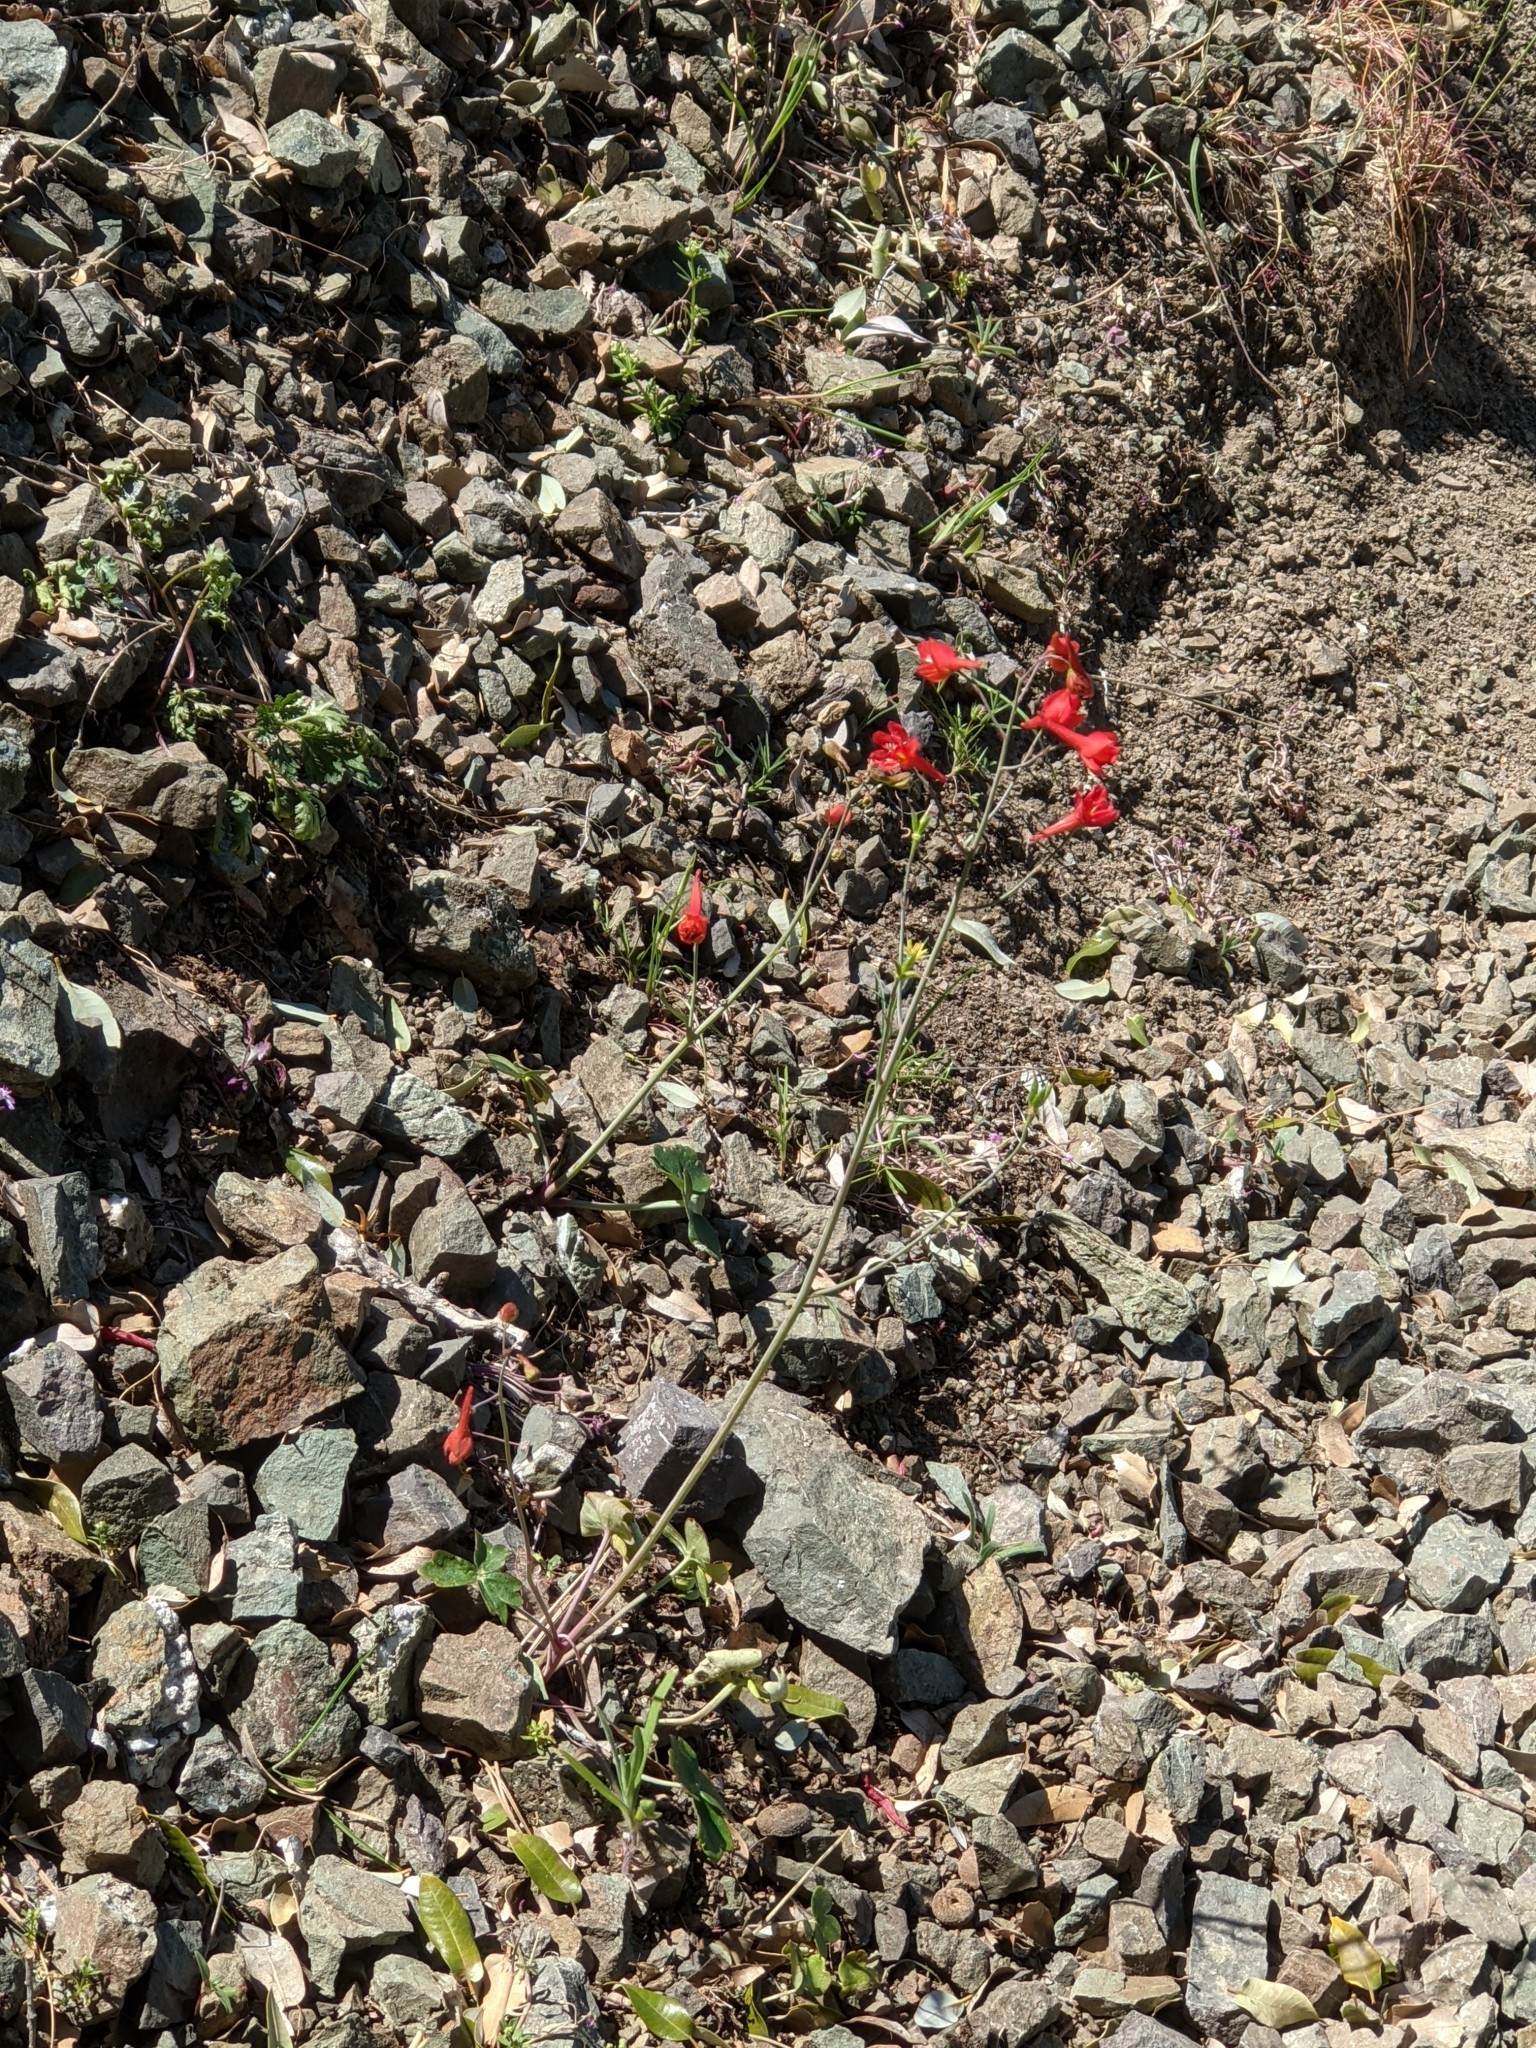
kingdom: Plantae
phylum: Tracheophyta
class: Magnoliopsida
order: Ranunculales
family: Ranunculaceae
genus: Delphinium
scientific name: Delphinium nudicaule
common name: Red larkspur
